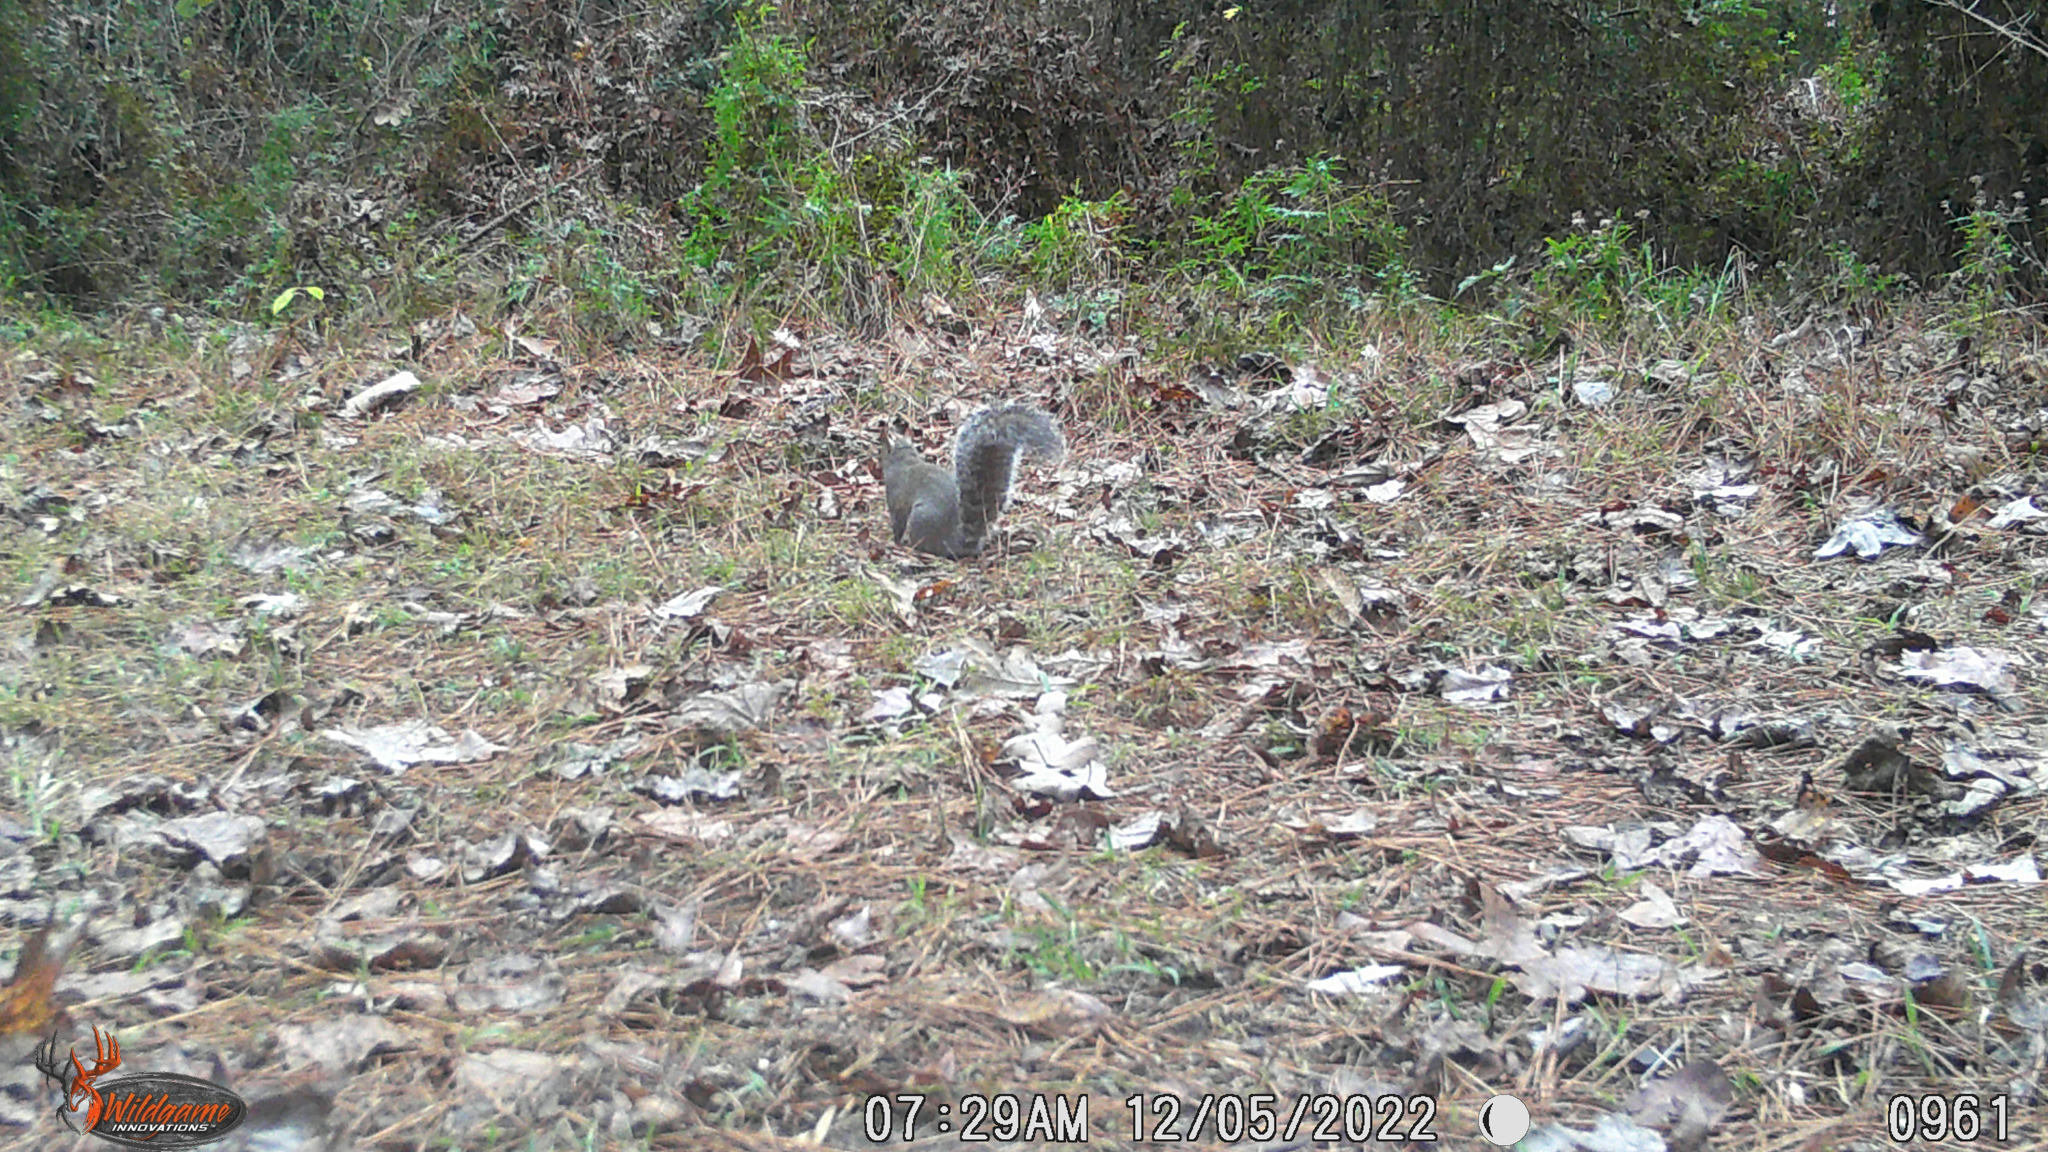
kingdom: Animalia
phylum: Chordata
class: Mammalia
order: Rodentia
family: Sciuridae
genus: Sciurus
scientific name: Sciurus carolinensis
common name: Eastern gray squirrel
